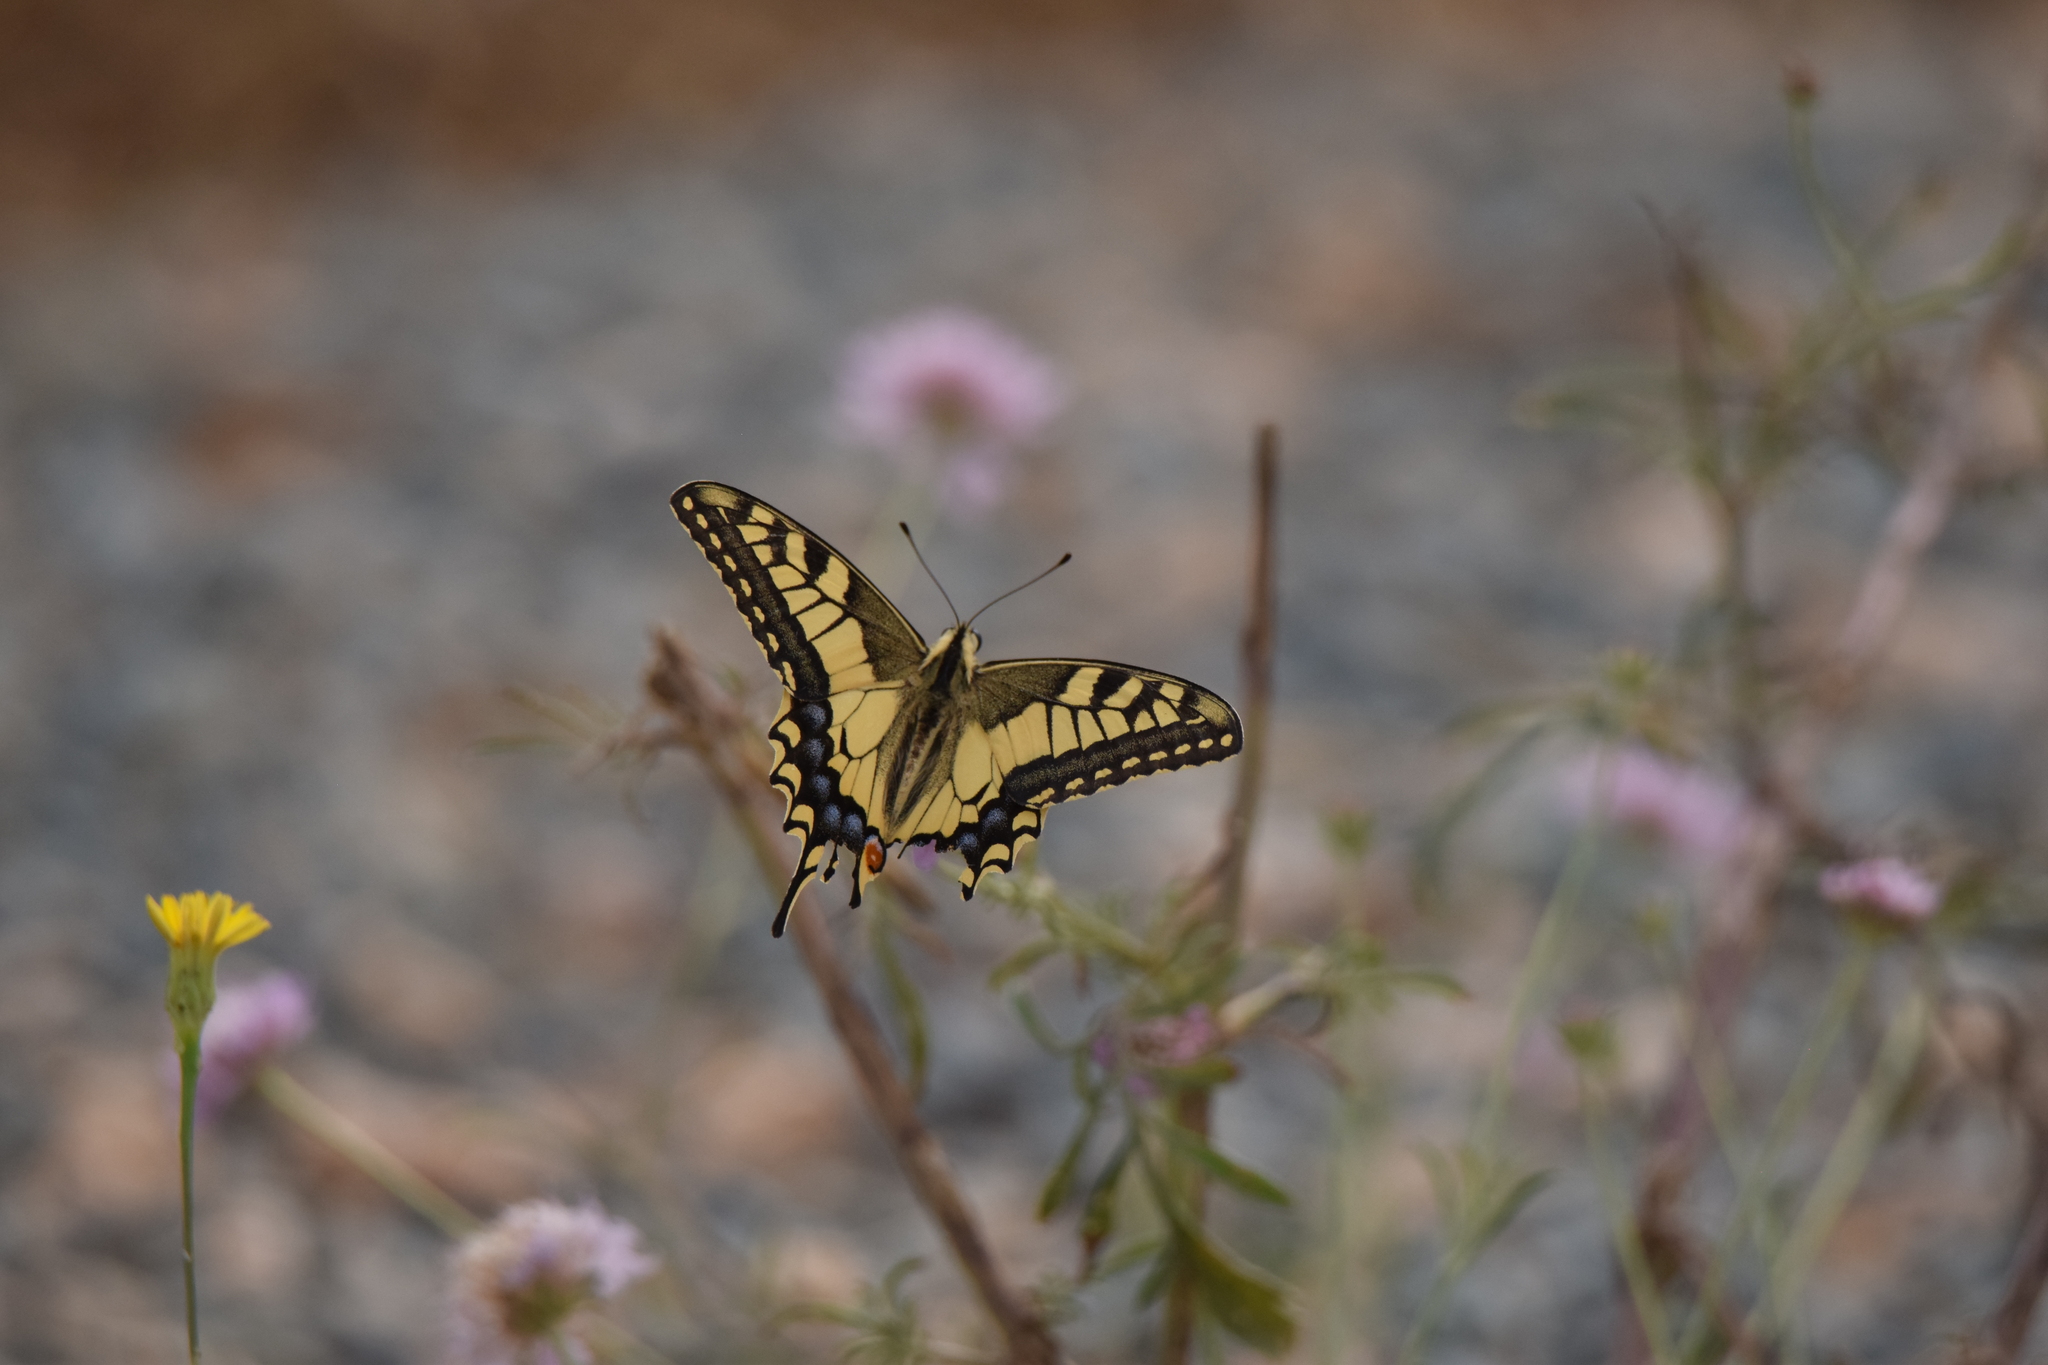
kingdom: Animalia
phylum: Arthropoda
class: Insecta
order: Lepidoptera
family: Papilionidae
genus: Papilio
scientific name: Papilio machaon
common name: Swallowtail
